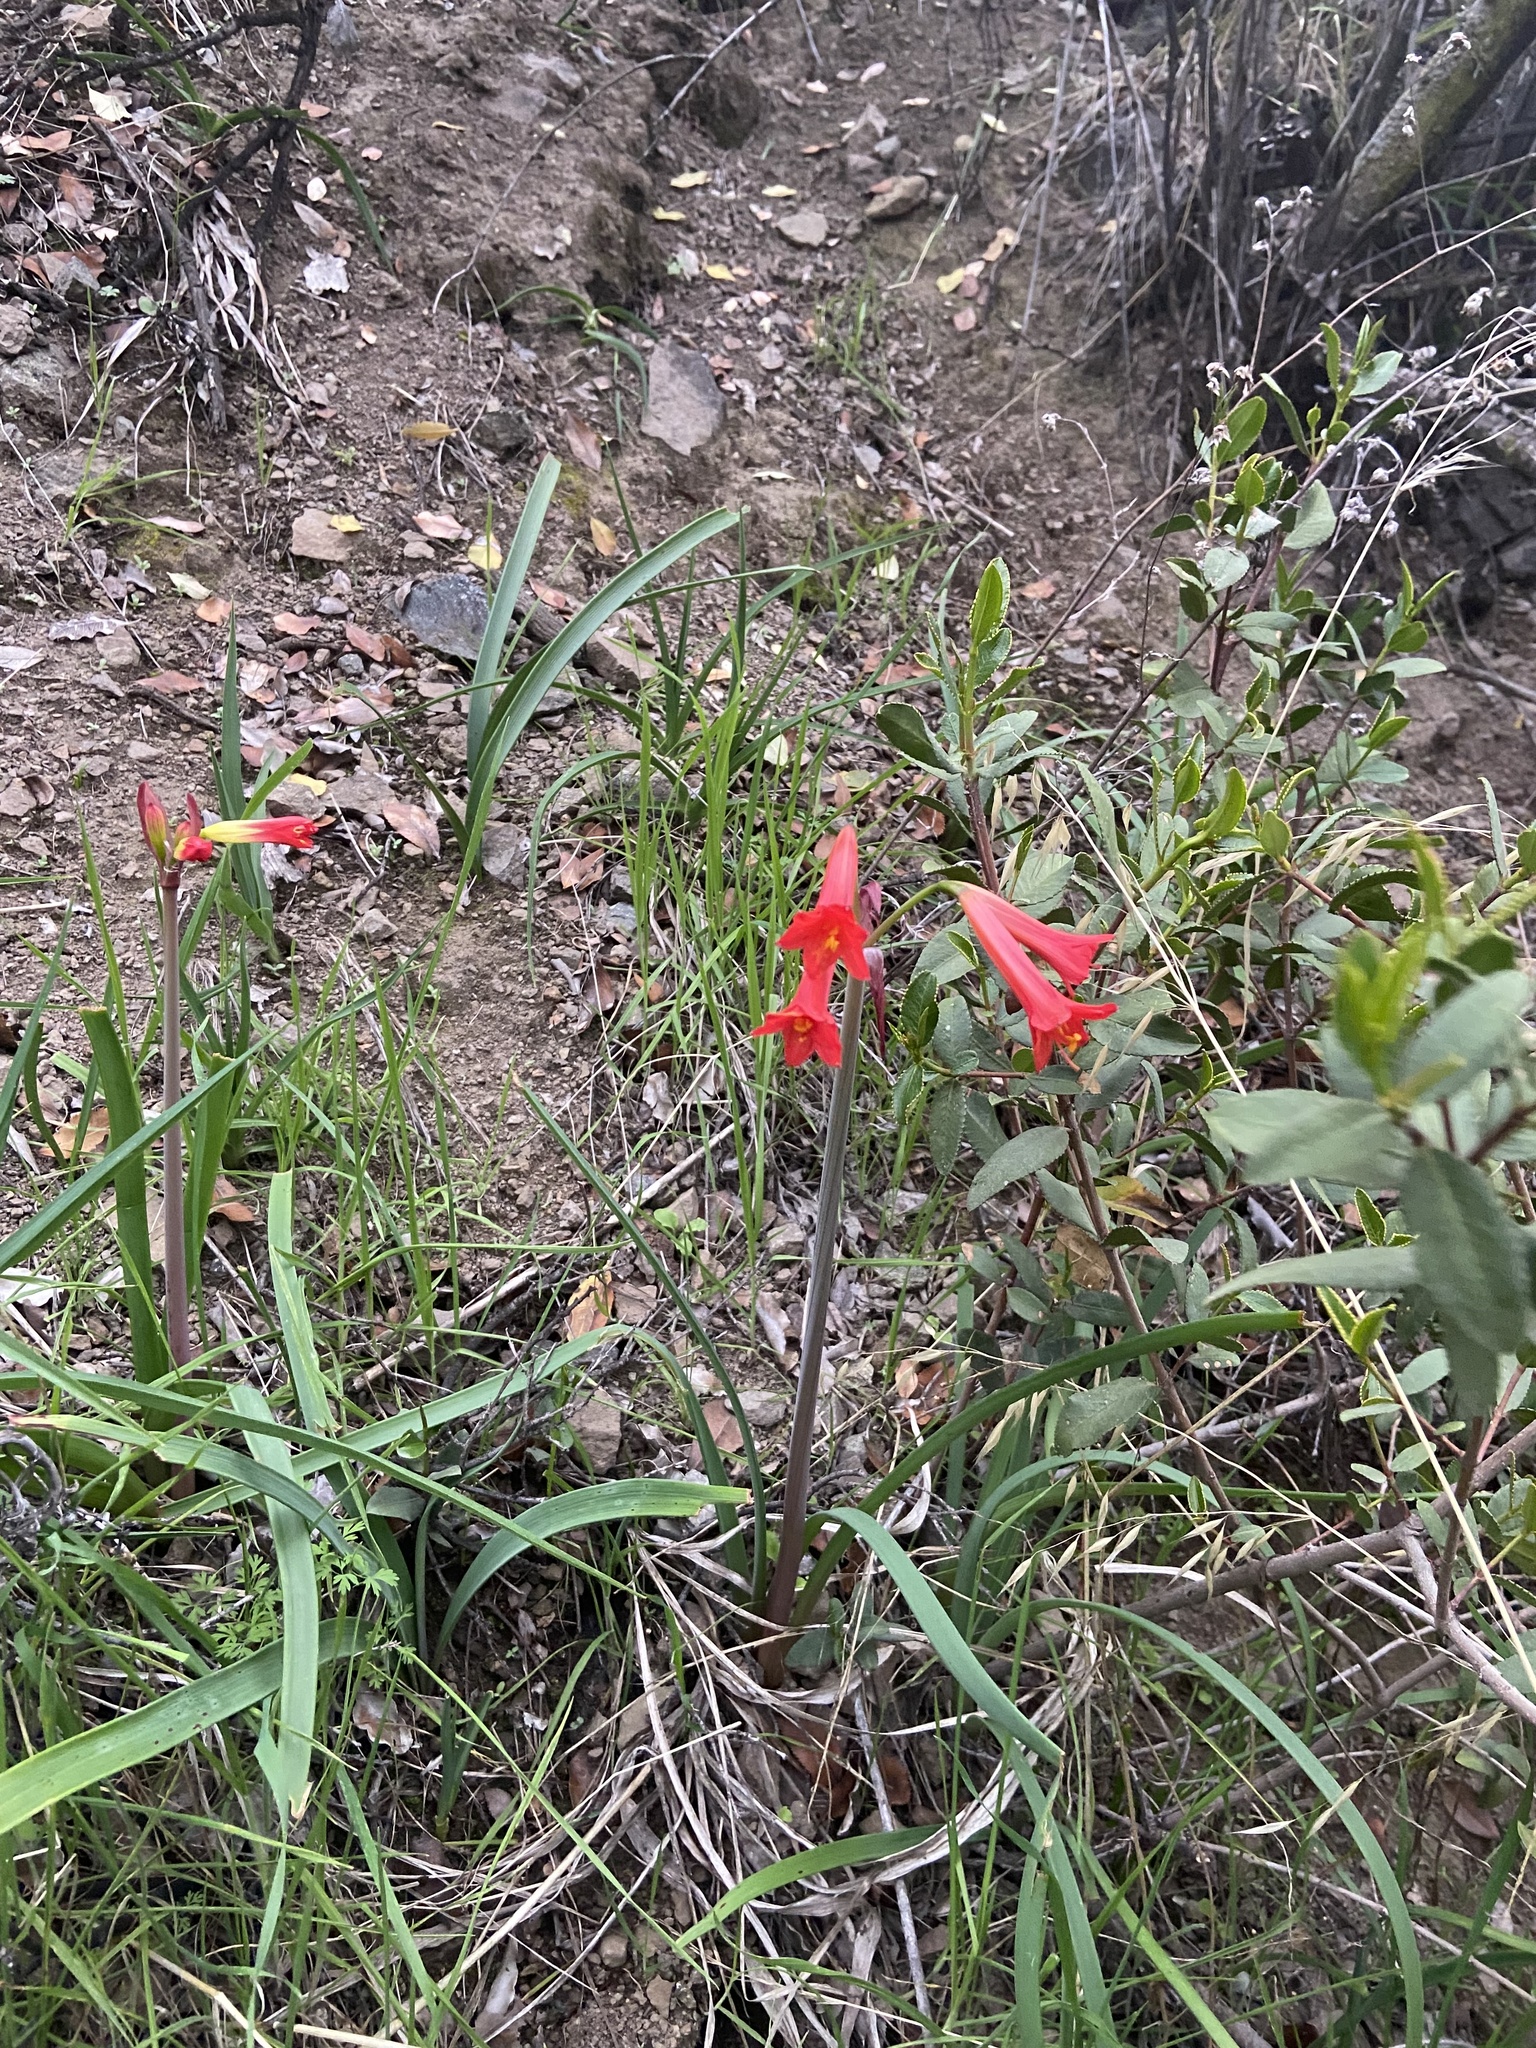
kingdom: Plantae
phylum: Tracheophyta
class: Liliopsida
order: Asparagales
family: Amaryllidaceae
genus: Phycella
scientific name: Phycella cyrtanthoides
